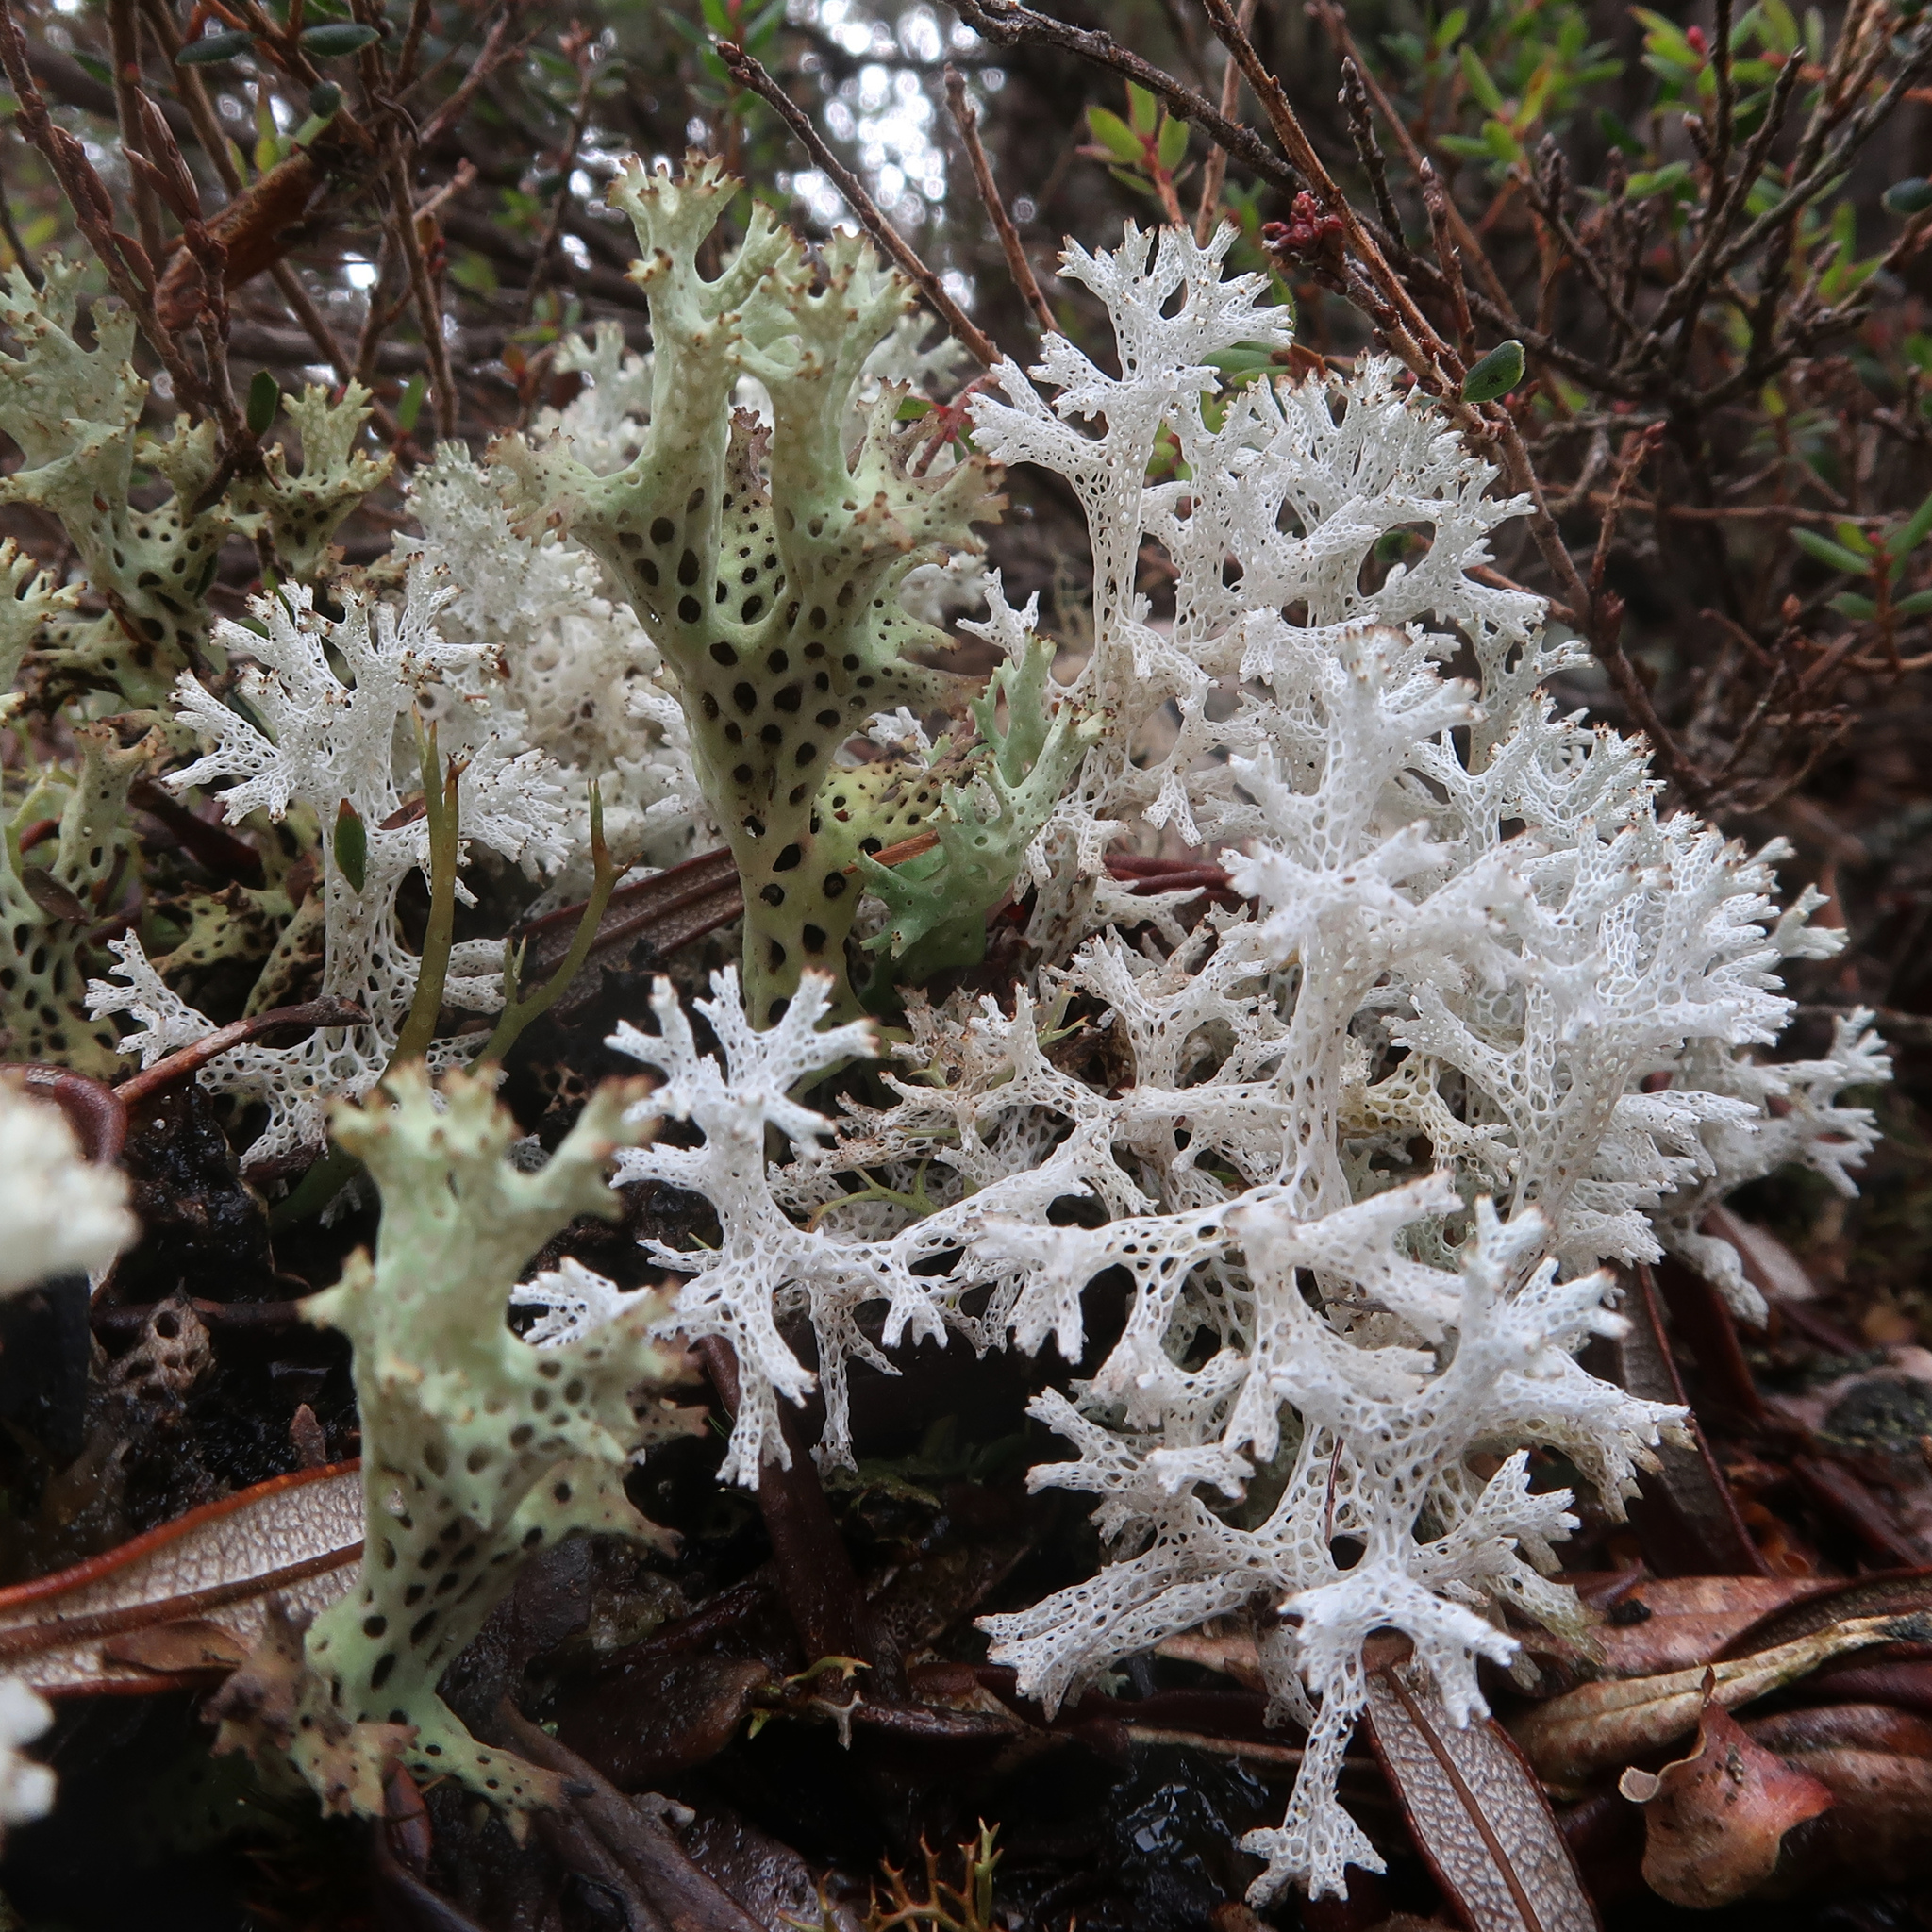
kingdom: Fungi
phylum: Ascomycota
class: Lecanoromycetes
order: Lecanorales
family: Cladoniaceae
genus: Pulchrocladia
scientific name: Pulchrocladia retipora
